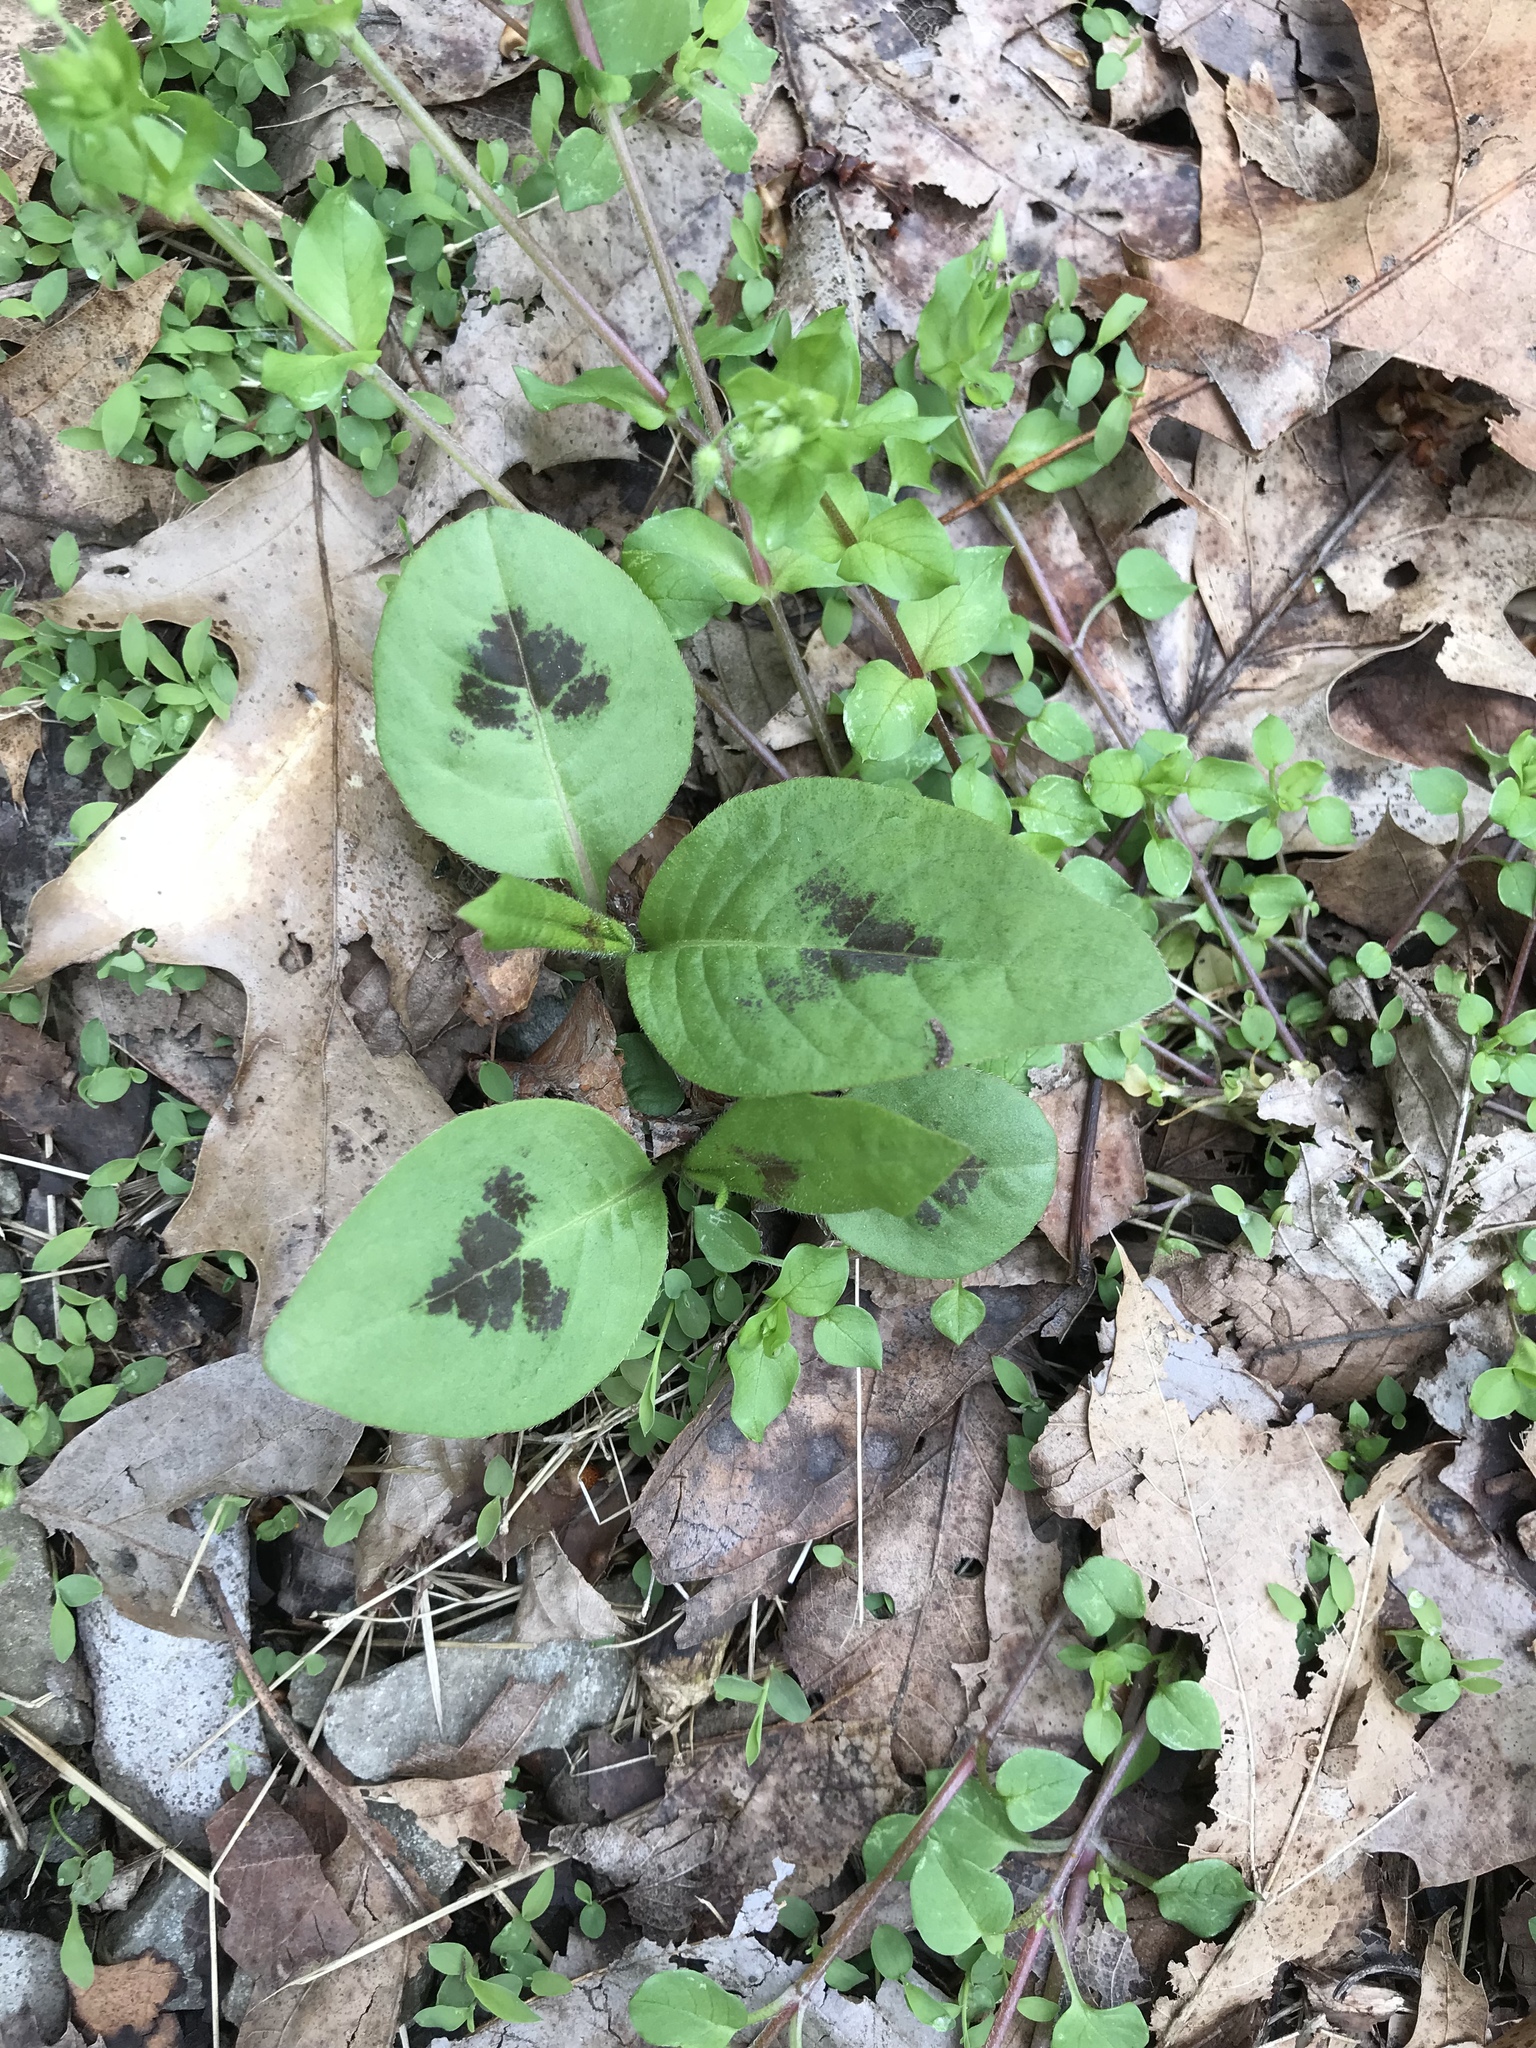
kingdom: Plantae
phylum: Tracheophyta
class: Magnoliopsida
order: Caryophyllales
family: Polygonaceae
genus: Persicaria
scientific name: Persicaria virginiana
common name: Jumpseed
